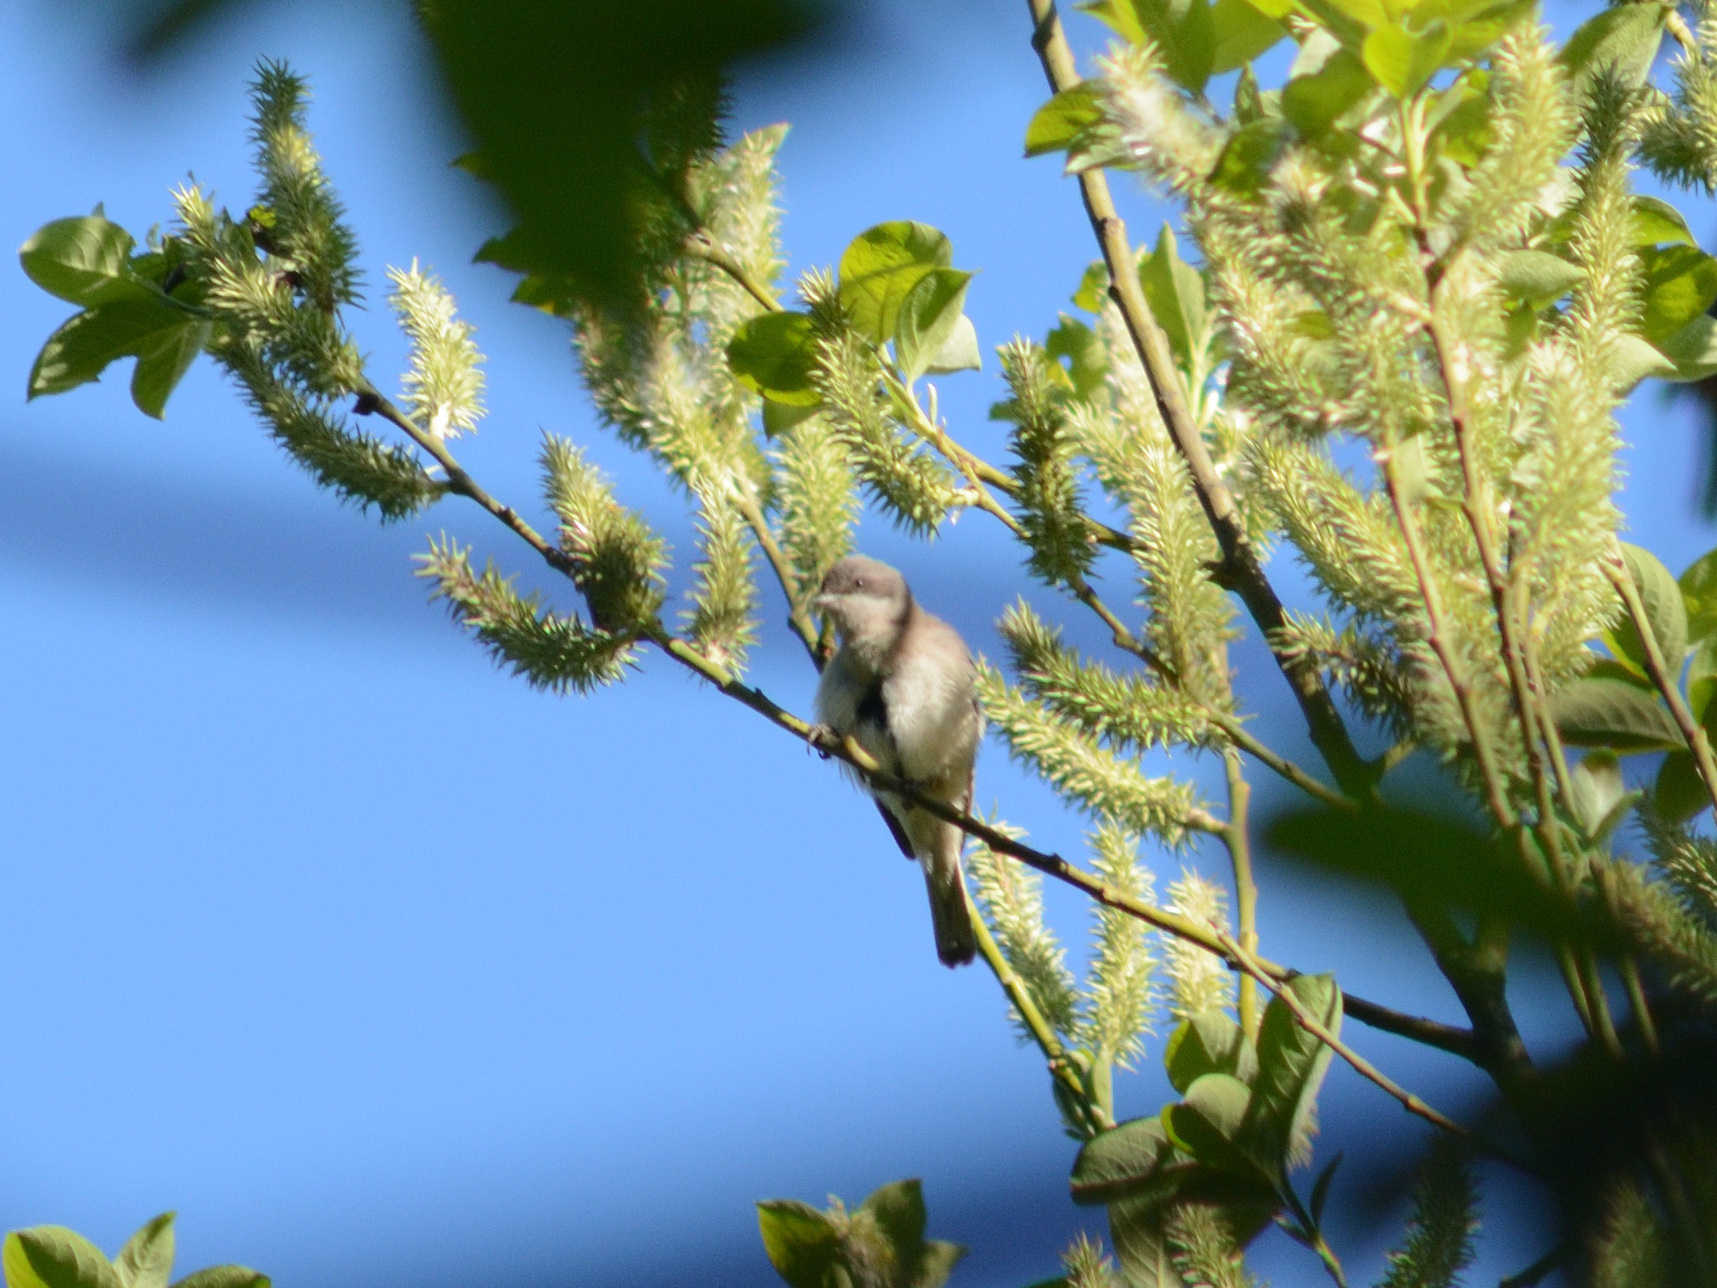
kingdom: Animalia
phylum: Chordata
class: Aves
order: Passeriformes
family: Sylviidae
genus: Sylvia
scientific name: Sylvia curruca
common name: Lesser whitethroat
